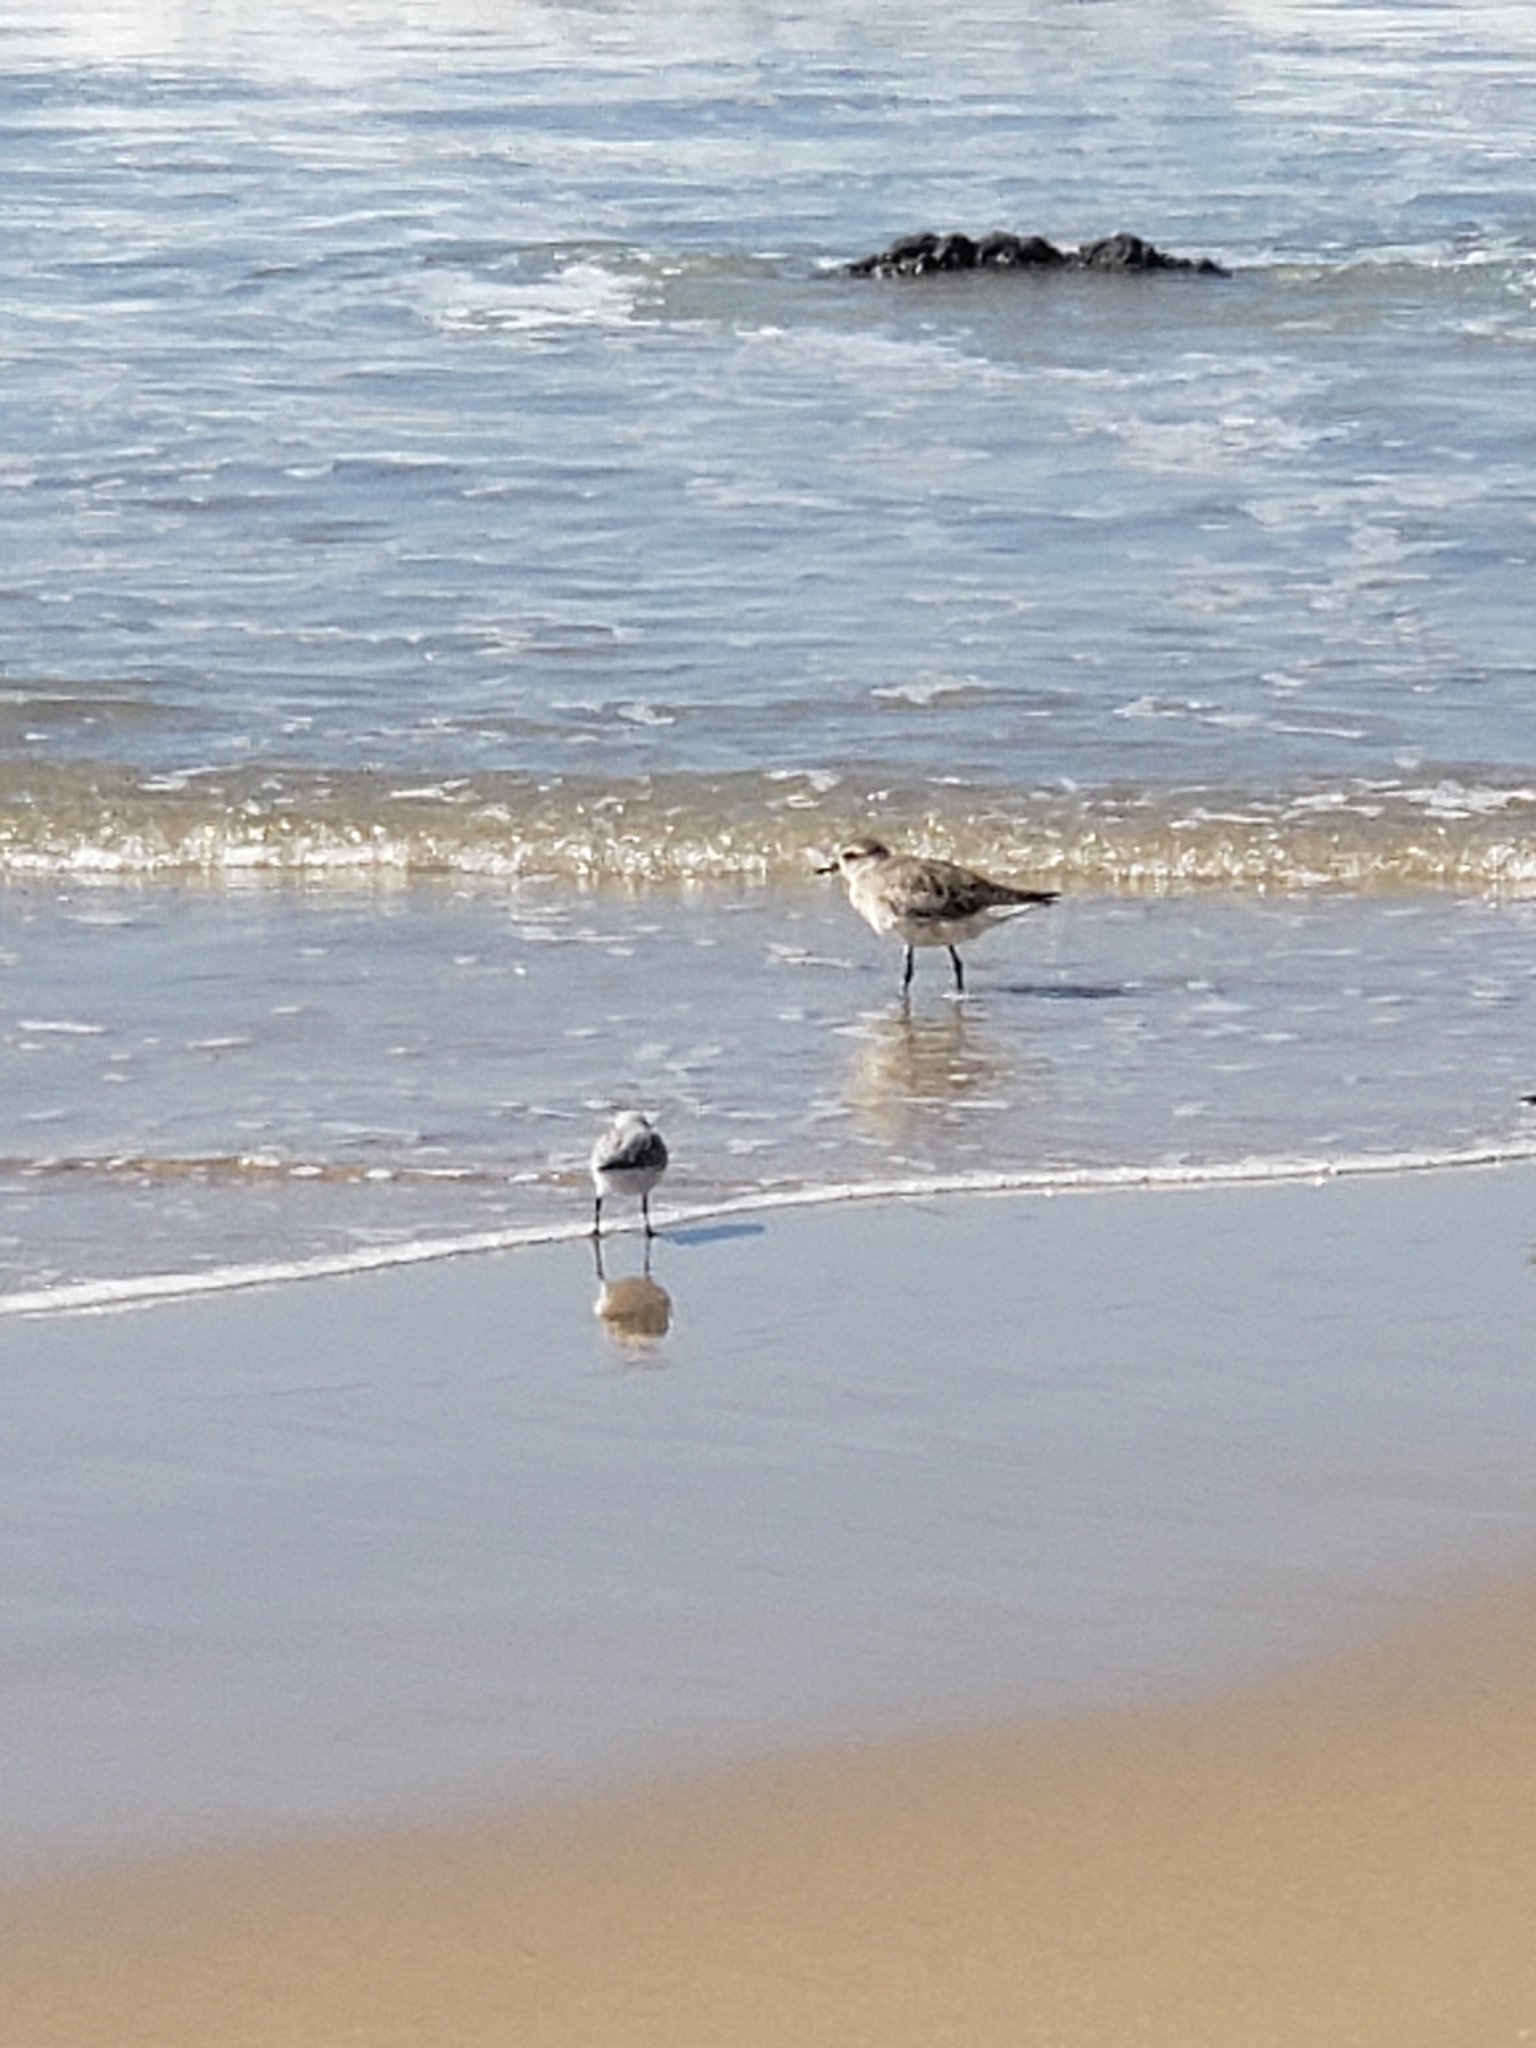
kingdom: Animalia
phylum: Chordata
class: Aves
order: Charadriiformes
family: Charadriidae
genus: Pluvialis
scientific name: Pluvialis squatarola
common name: Grey plover
